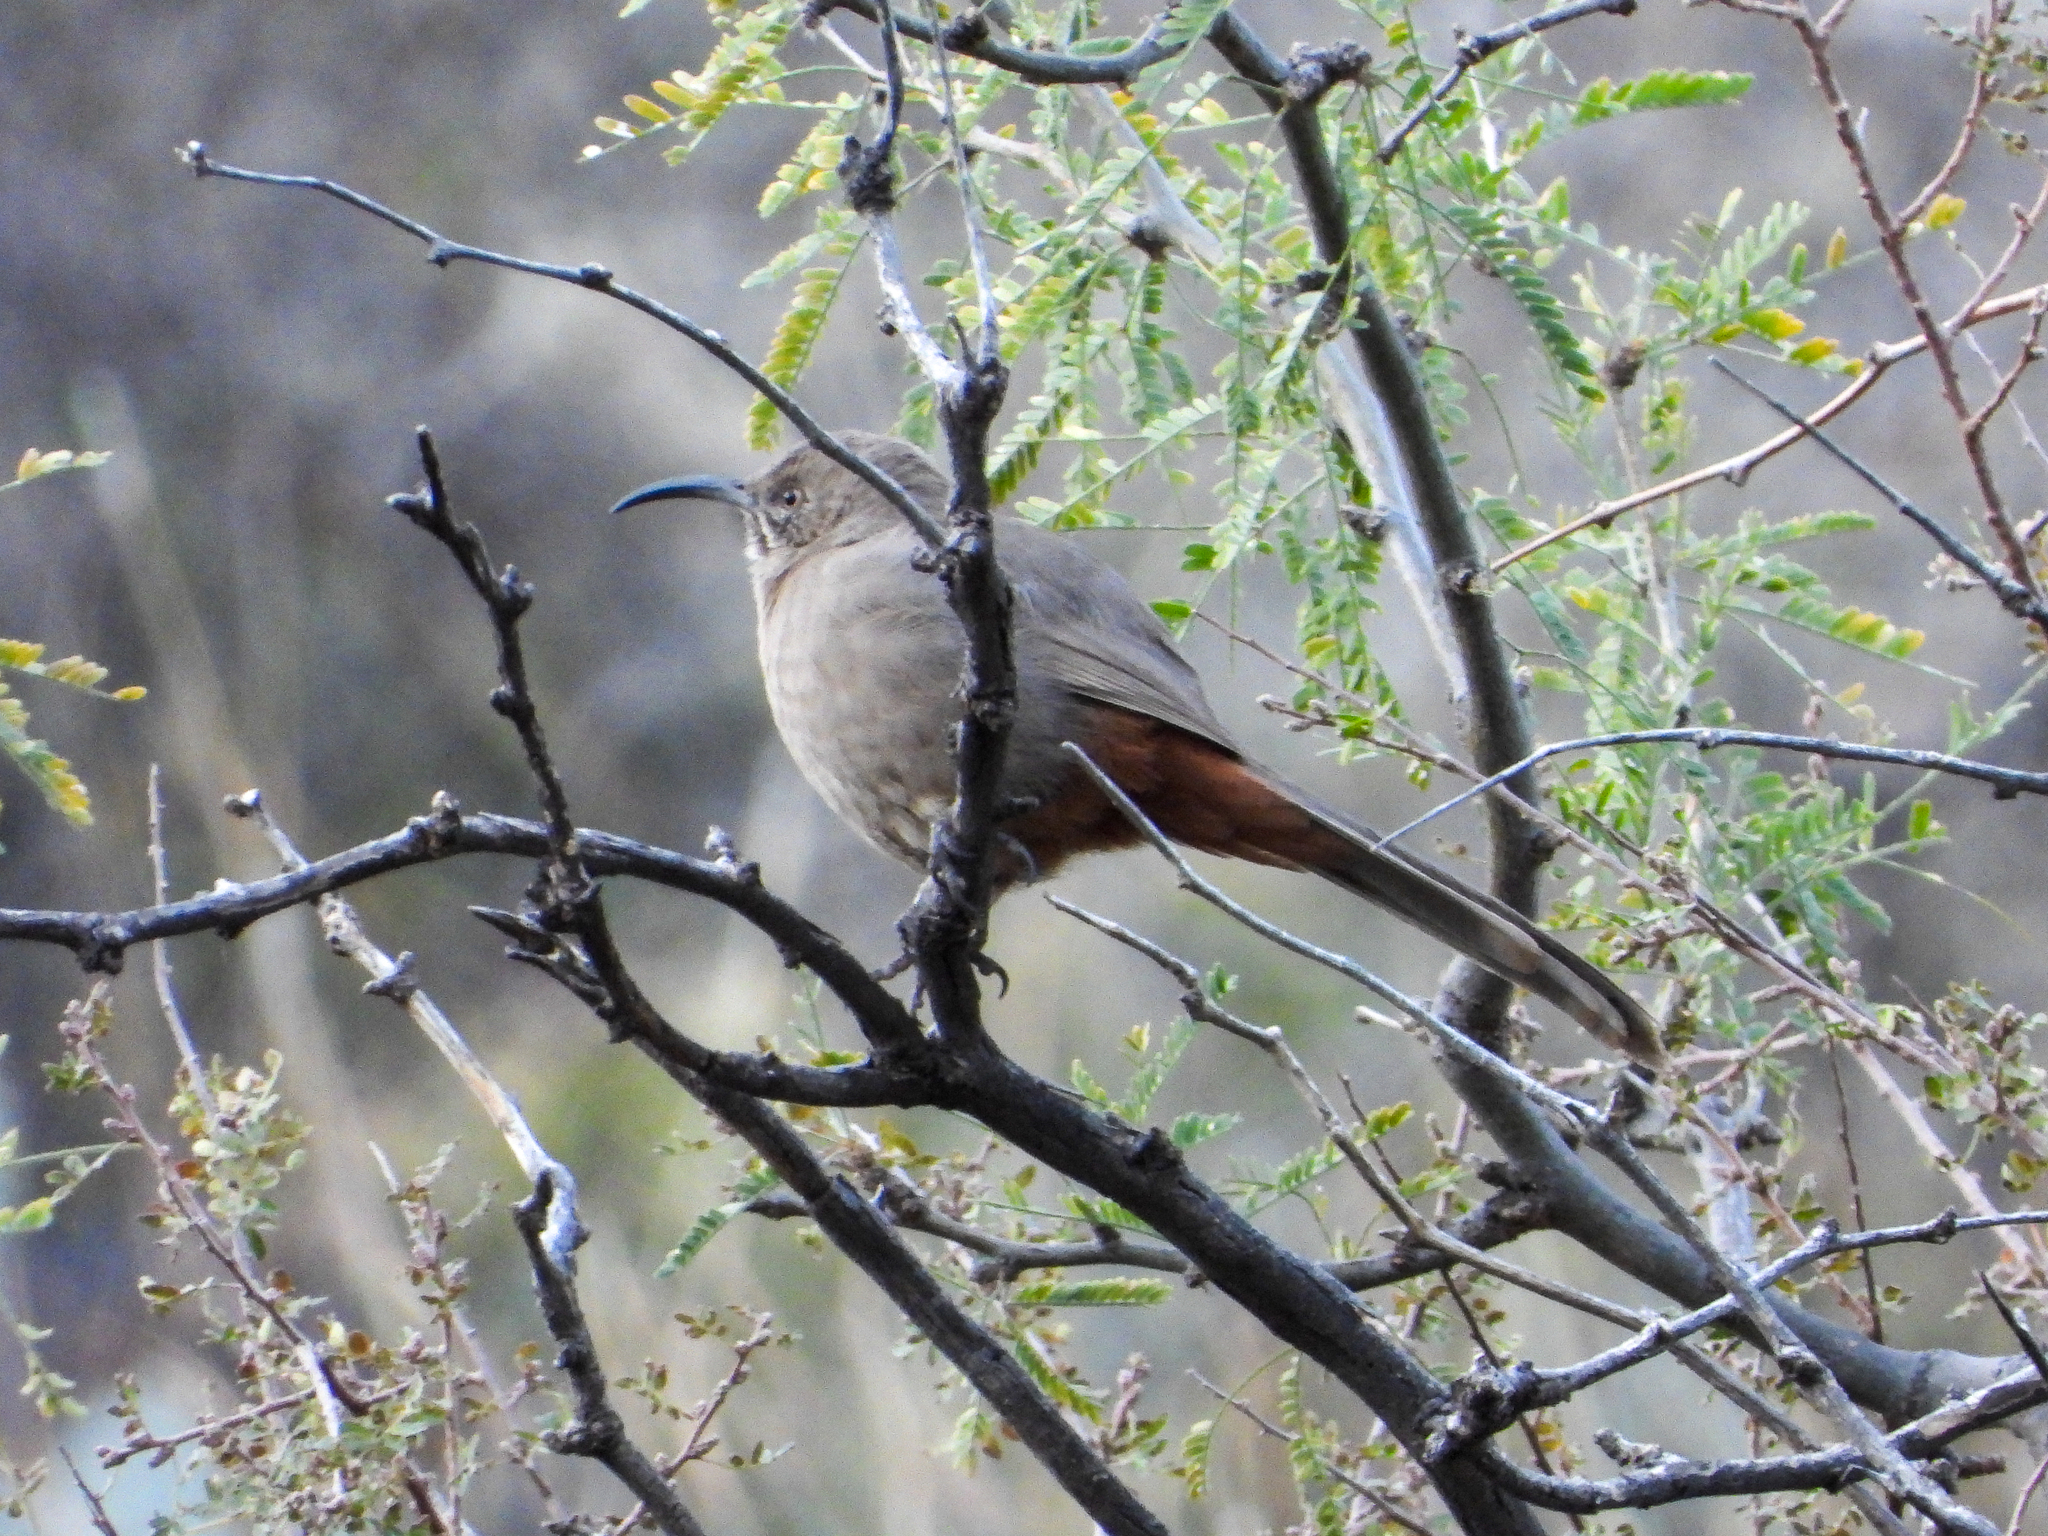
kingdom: Animalia
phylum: Chordata
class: Aves
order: Passeriformes
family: Mimidae
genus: Toxostoma
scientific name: Toxostoma crissale
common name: Crissal thrasher
